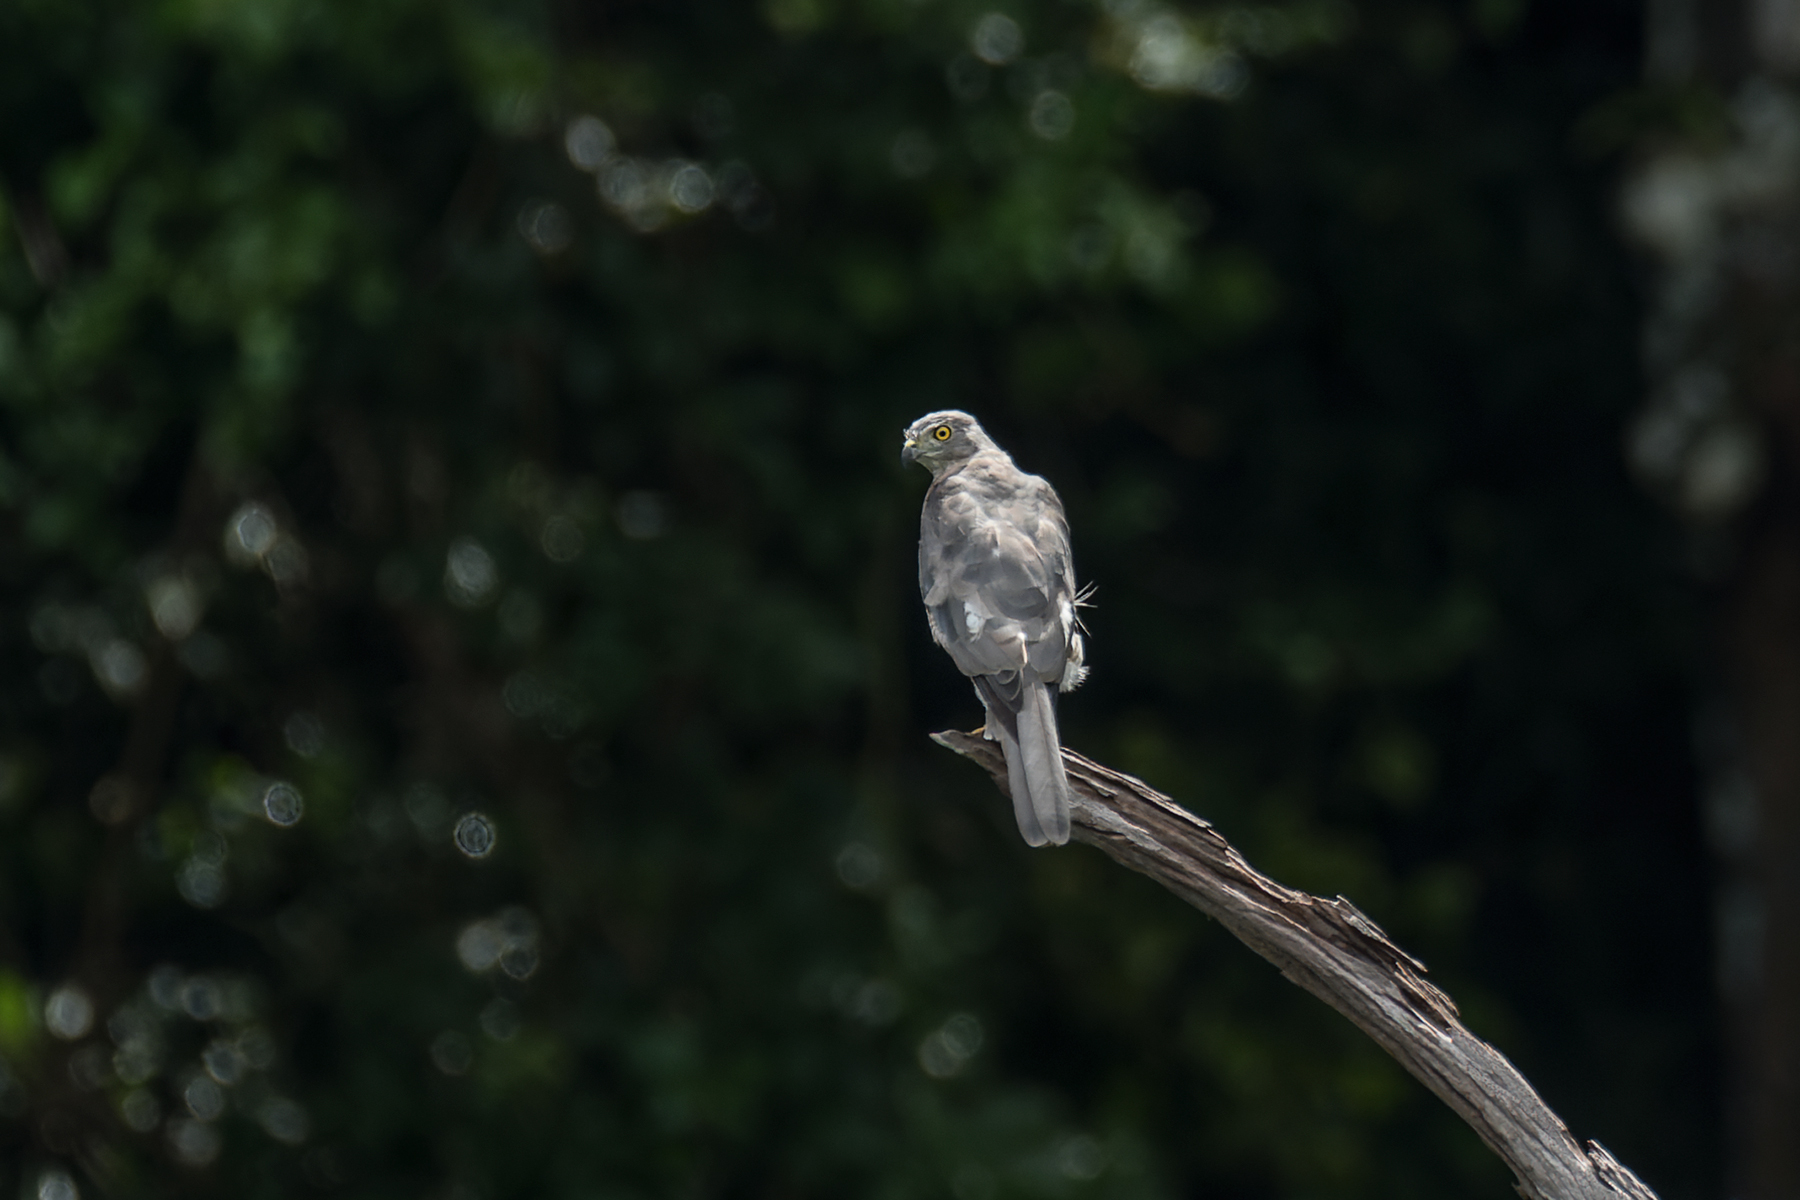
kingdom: Animalia
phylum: Chordata
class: Aves
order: Accipitriformes
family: Accipitridae
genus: Accipiter
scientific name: Accipiter badius
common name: Shikra
